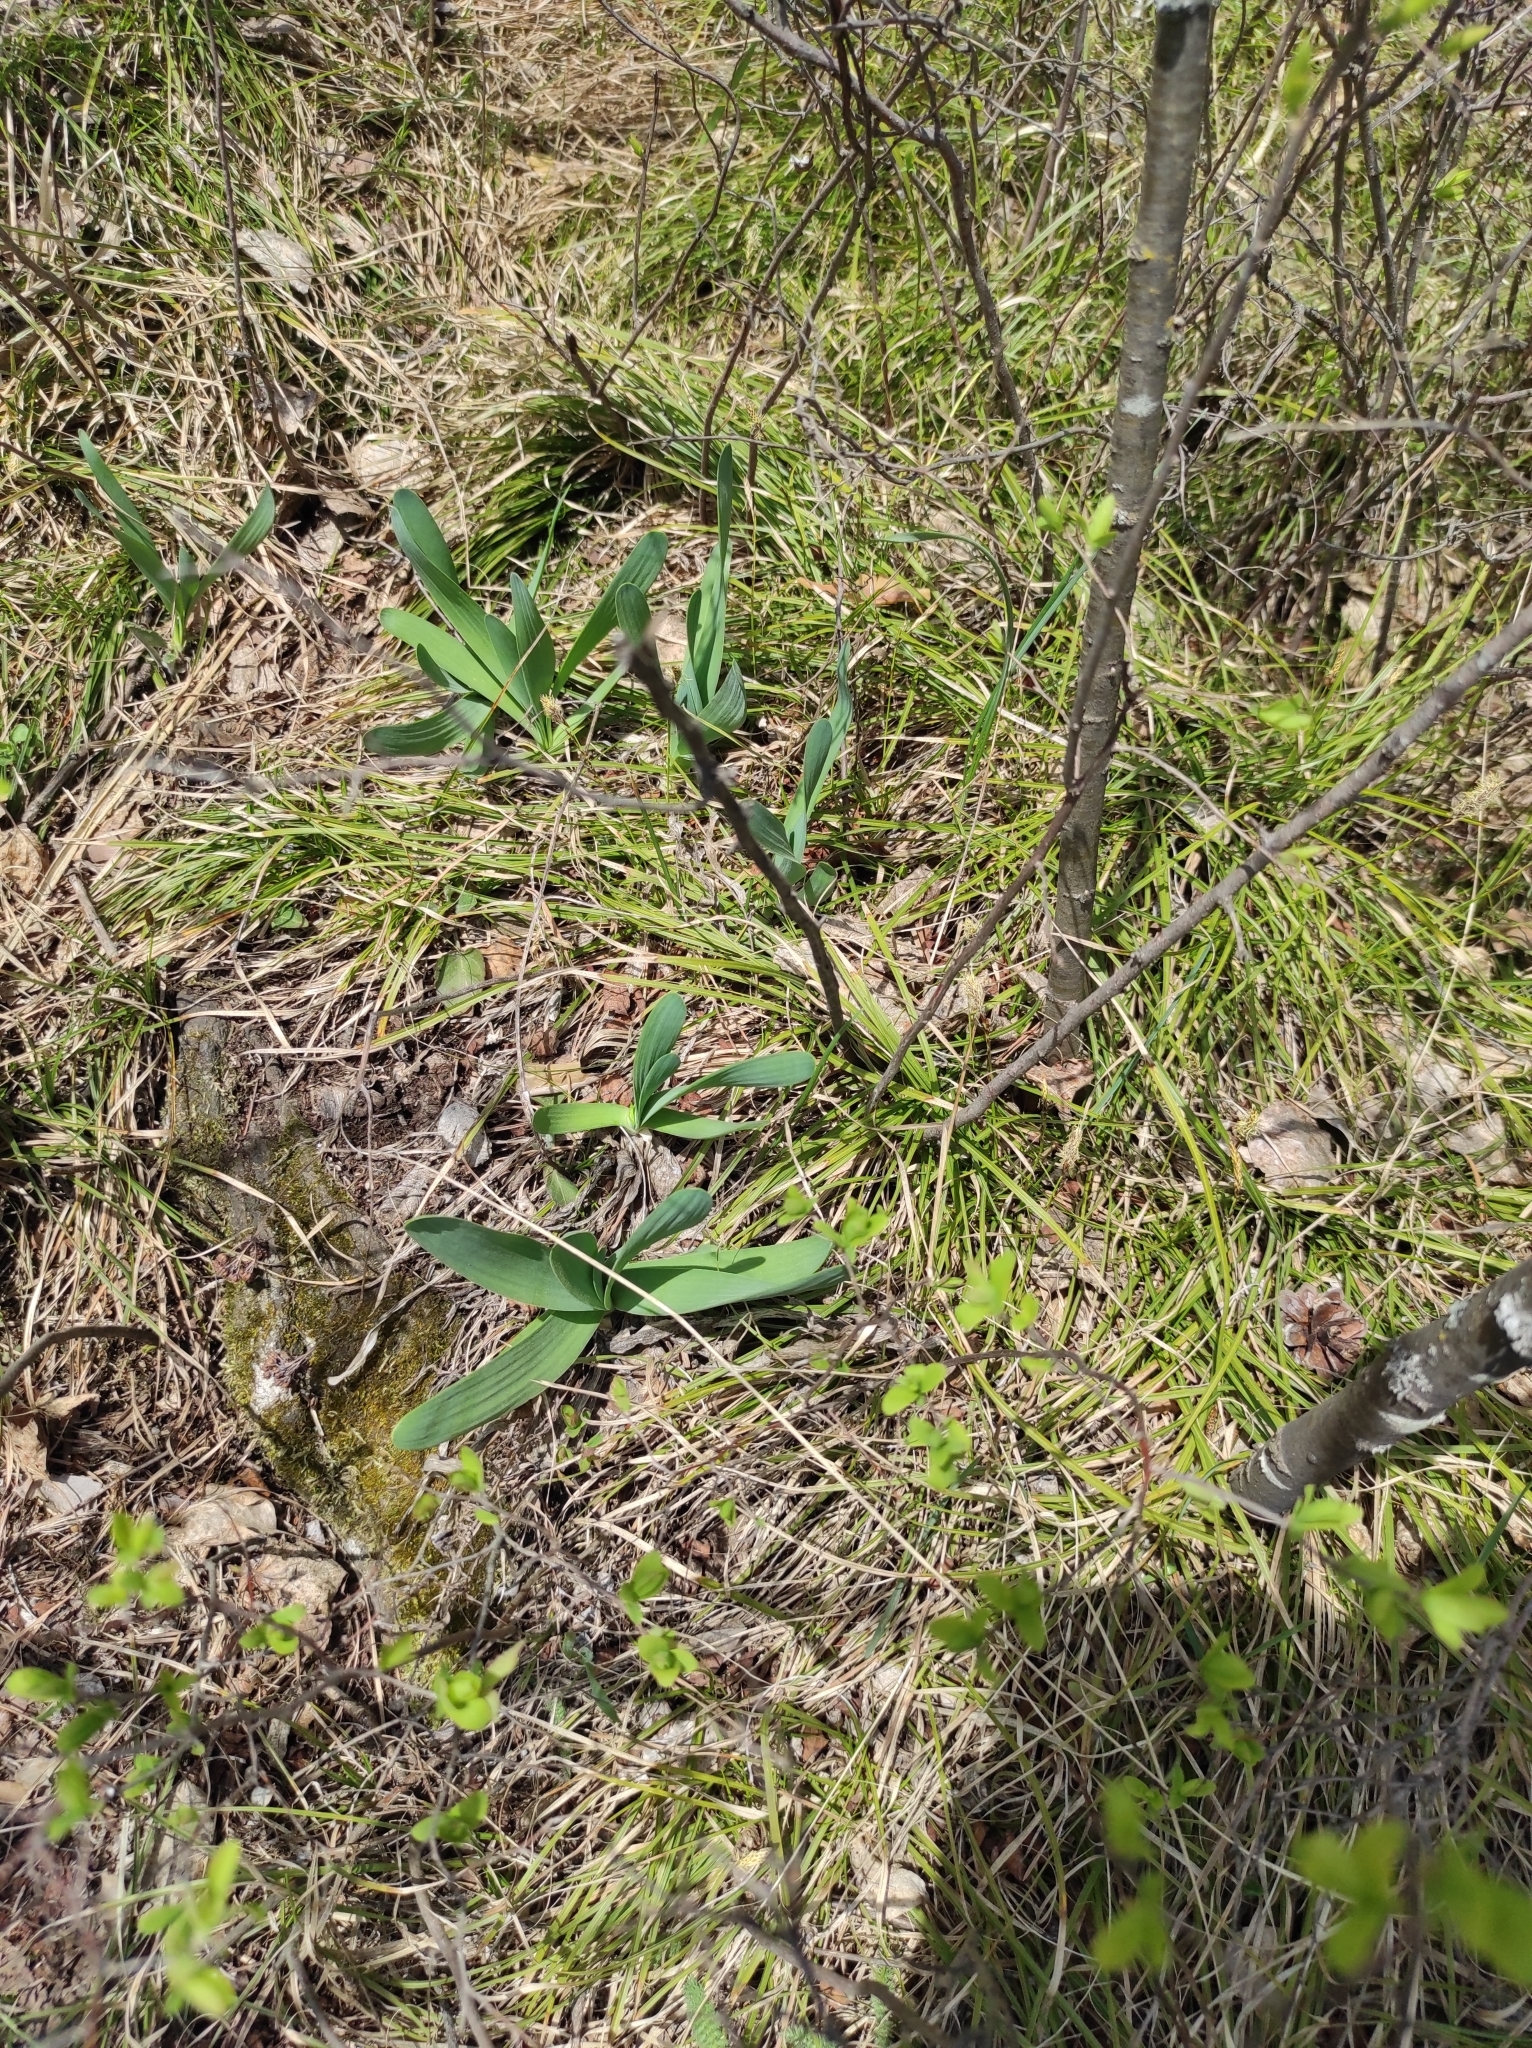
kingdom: Plantae
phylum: Tracheophyta
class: Liliopsida
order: Asparagales
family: Amaryllidaceae
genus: Allium
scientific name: Allium nutans
